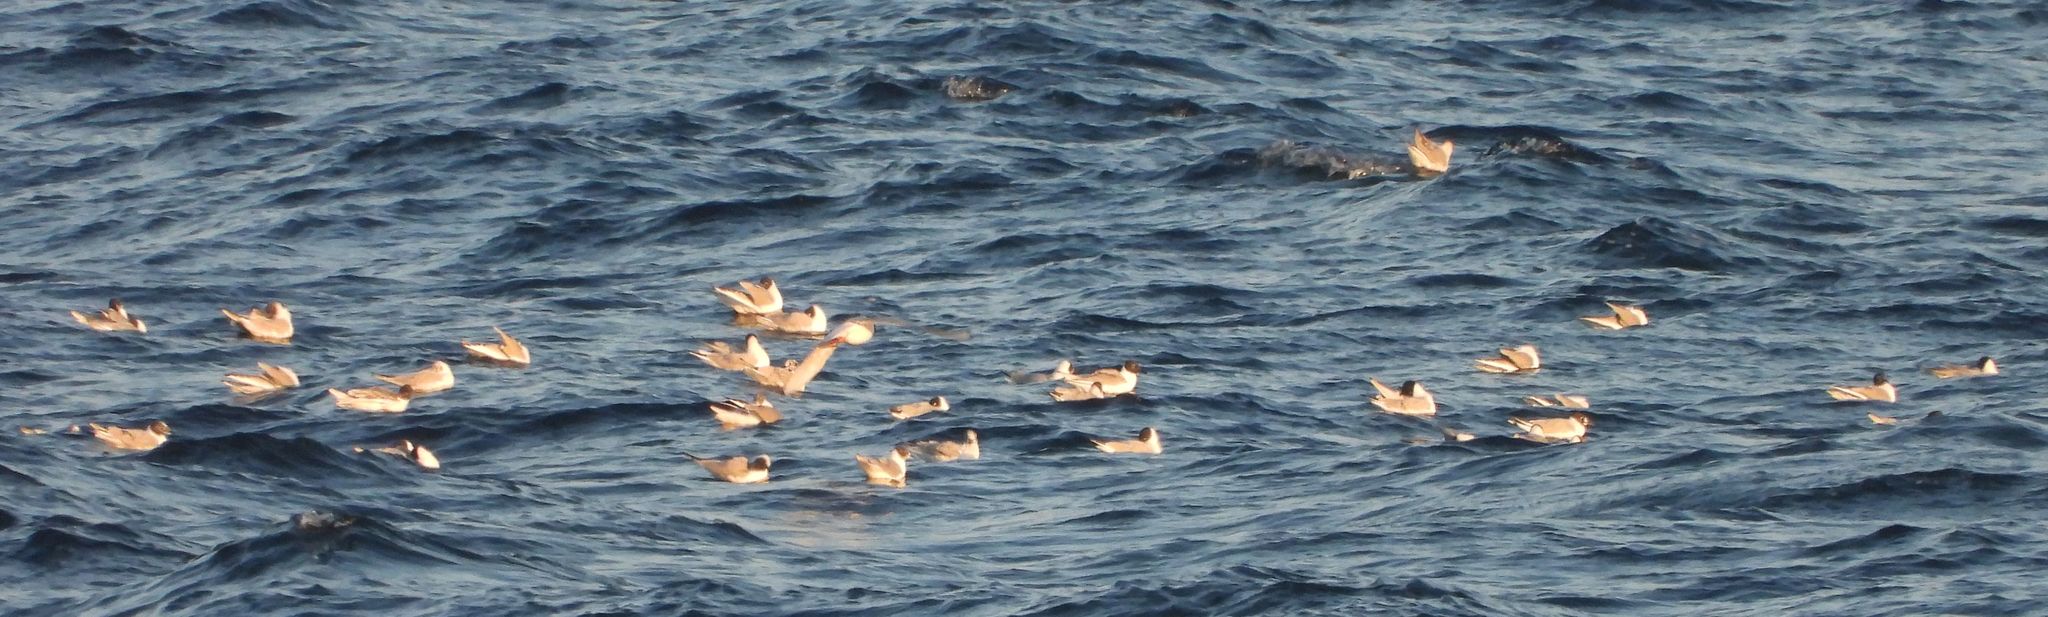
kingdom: Animalia
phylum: Chordata
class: Aves
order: Charadriiformes
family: Laridae
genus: Chroicocephalus
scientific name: Chroicocephalus philadelphia
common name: Bonaparte's gull
